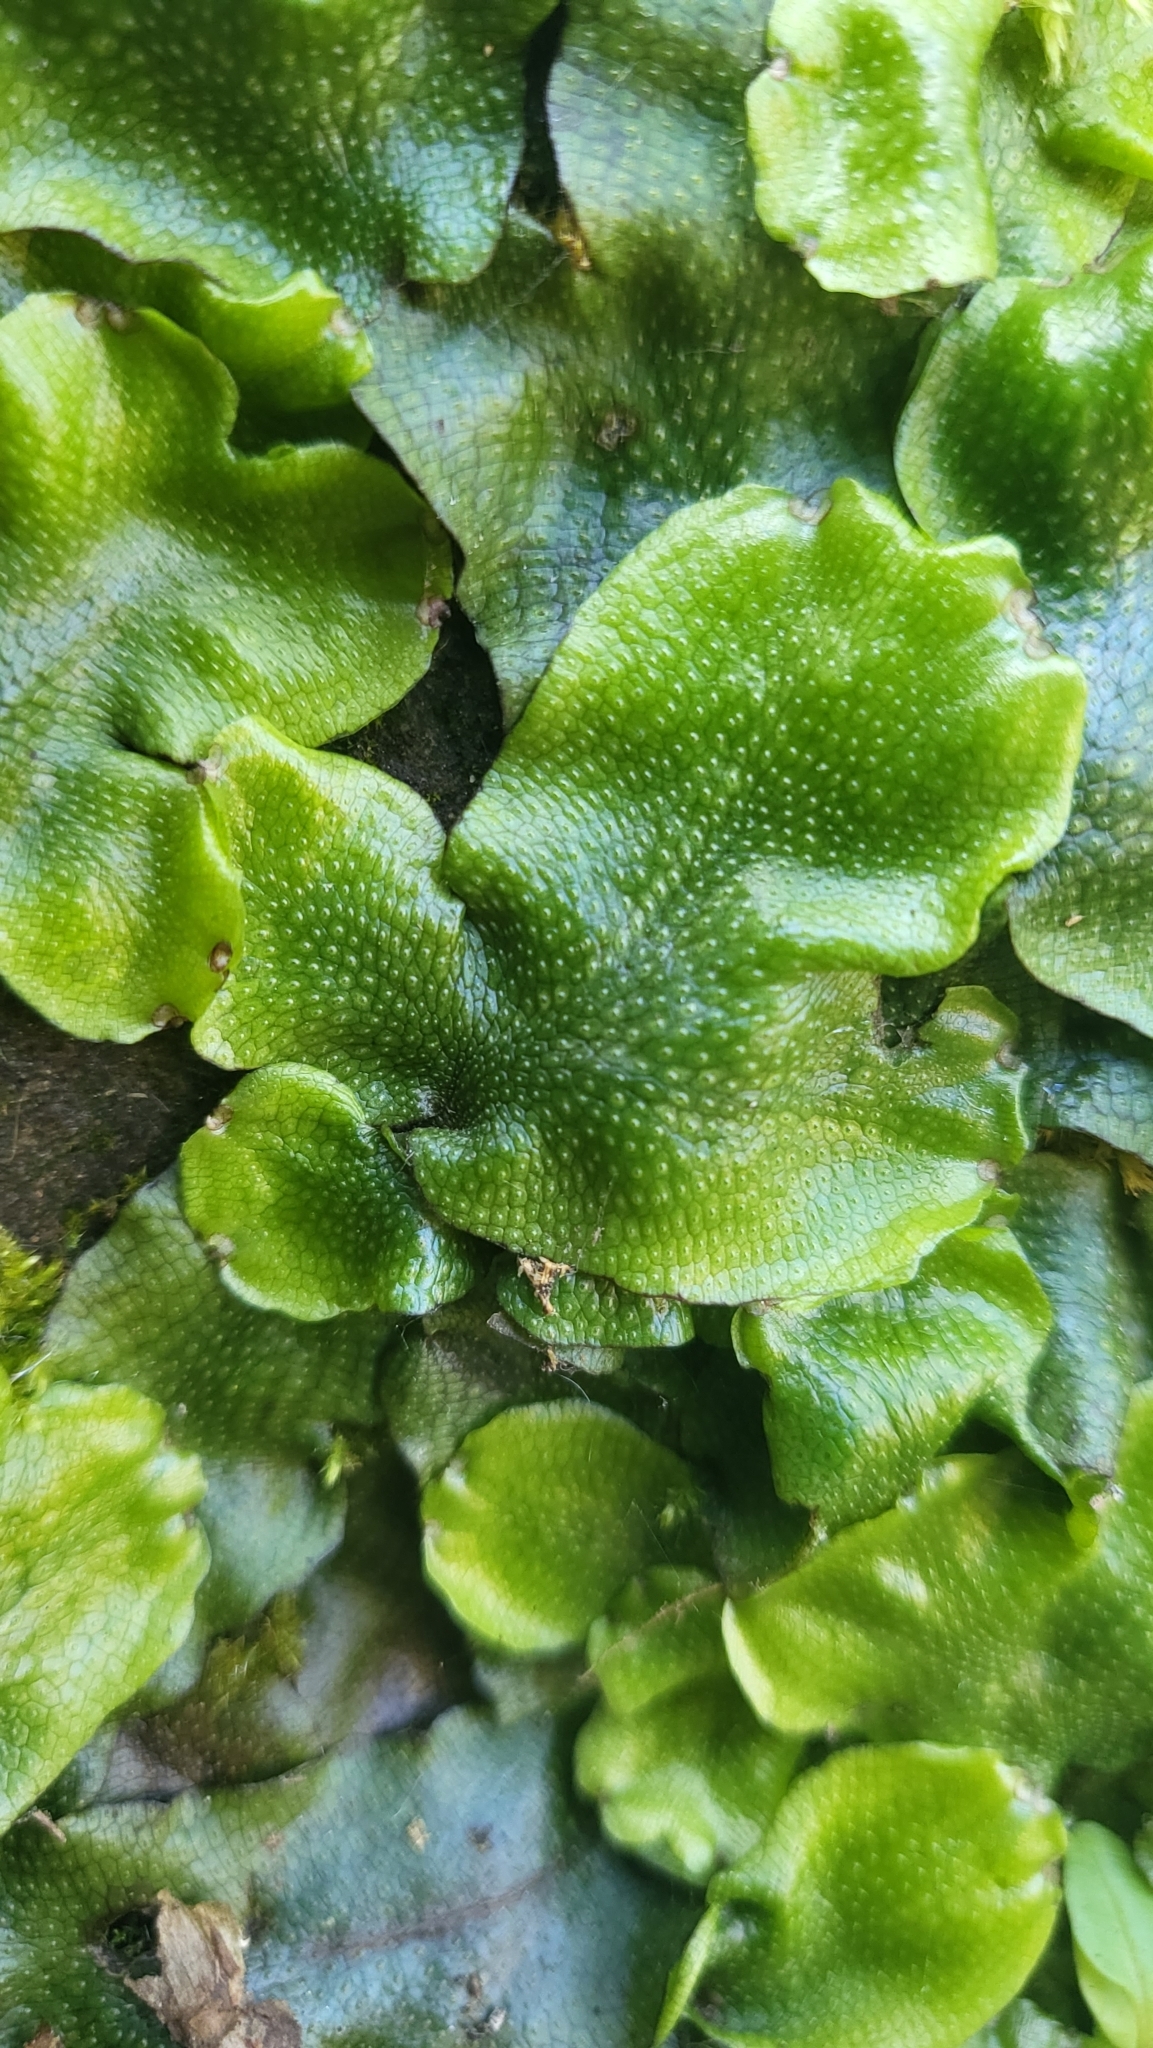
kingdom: Plantae
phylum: Marchantiophyta
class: Marchantiopsida
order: Marchantiales
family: Conocephalaceae
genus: Conocephalum
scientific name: Conocephalum conicum
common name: Great scented liverwort
